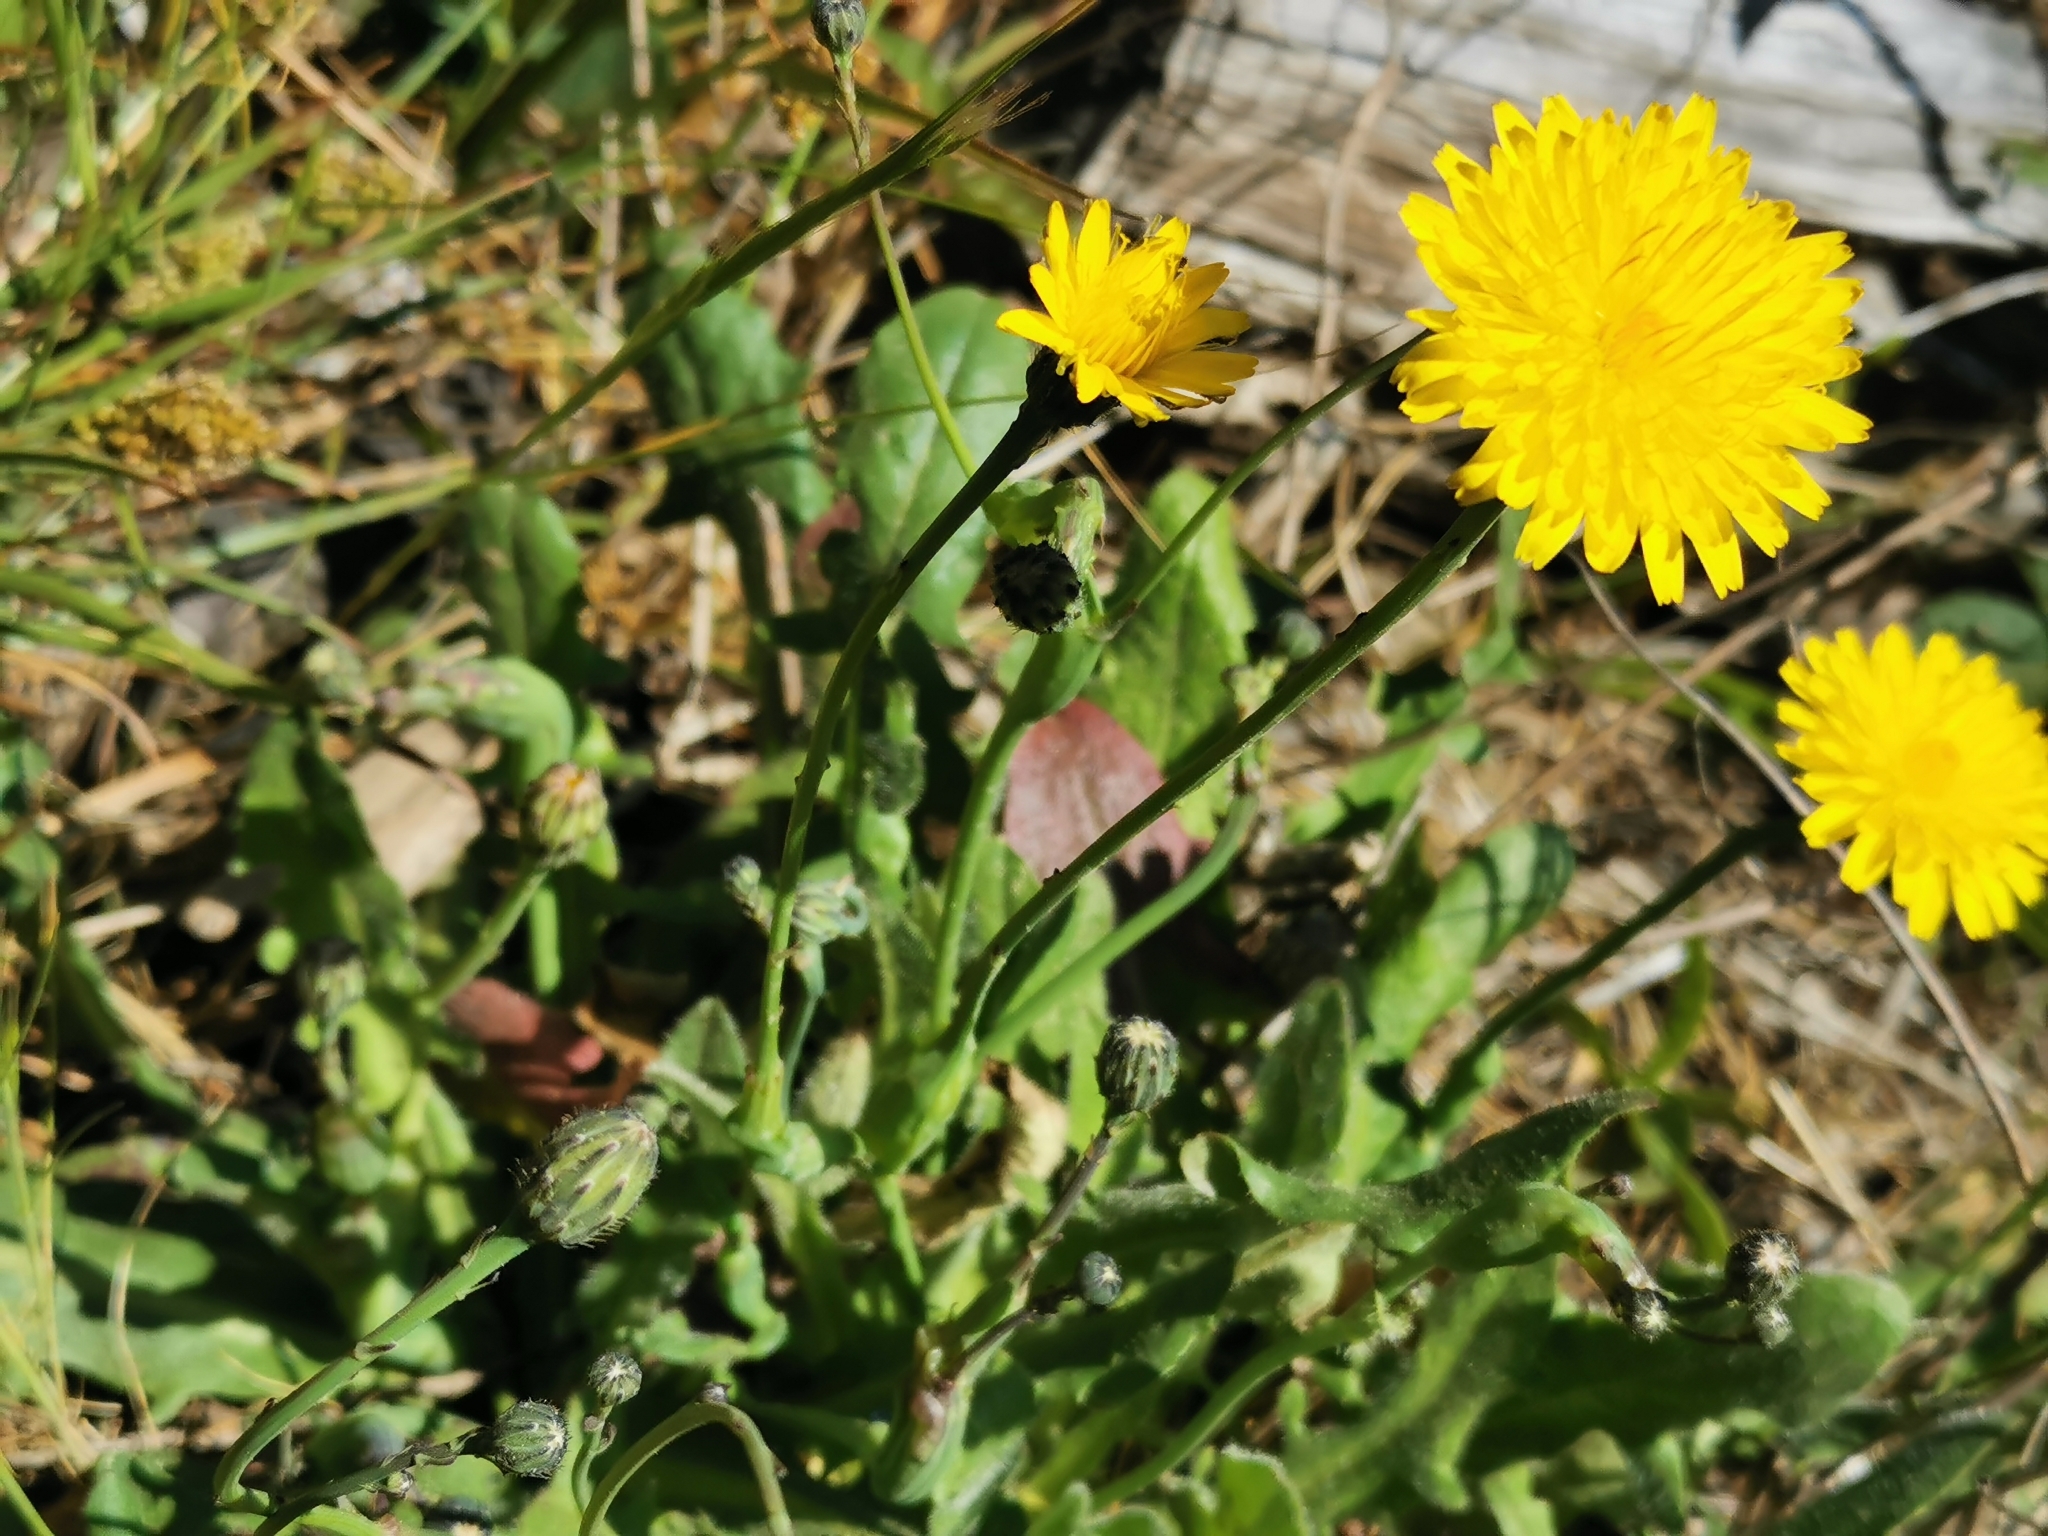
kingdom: Plantae
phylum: Tracheophyta
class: Magnoliopsida
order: Asterales
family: Asteraceae
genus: Hypochaeris
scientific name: Hypochaeris radicata
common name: Flatweed
